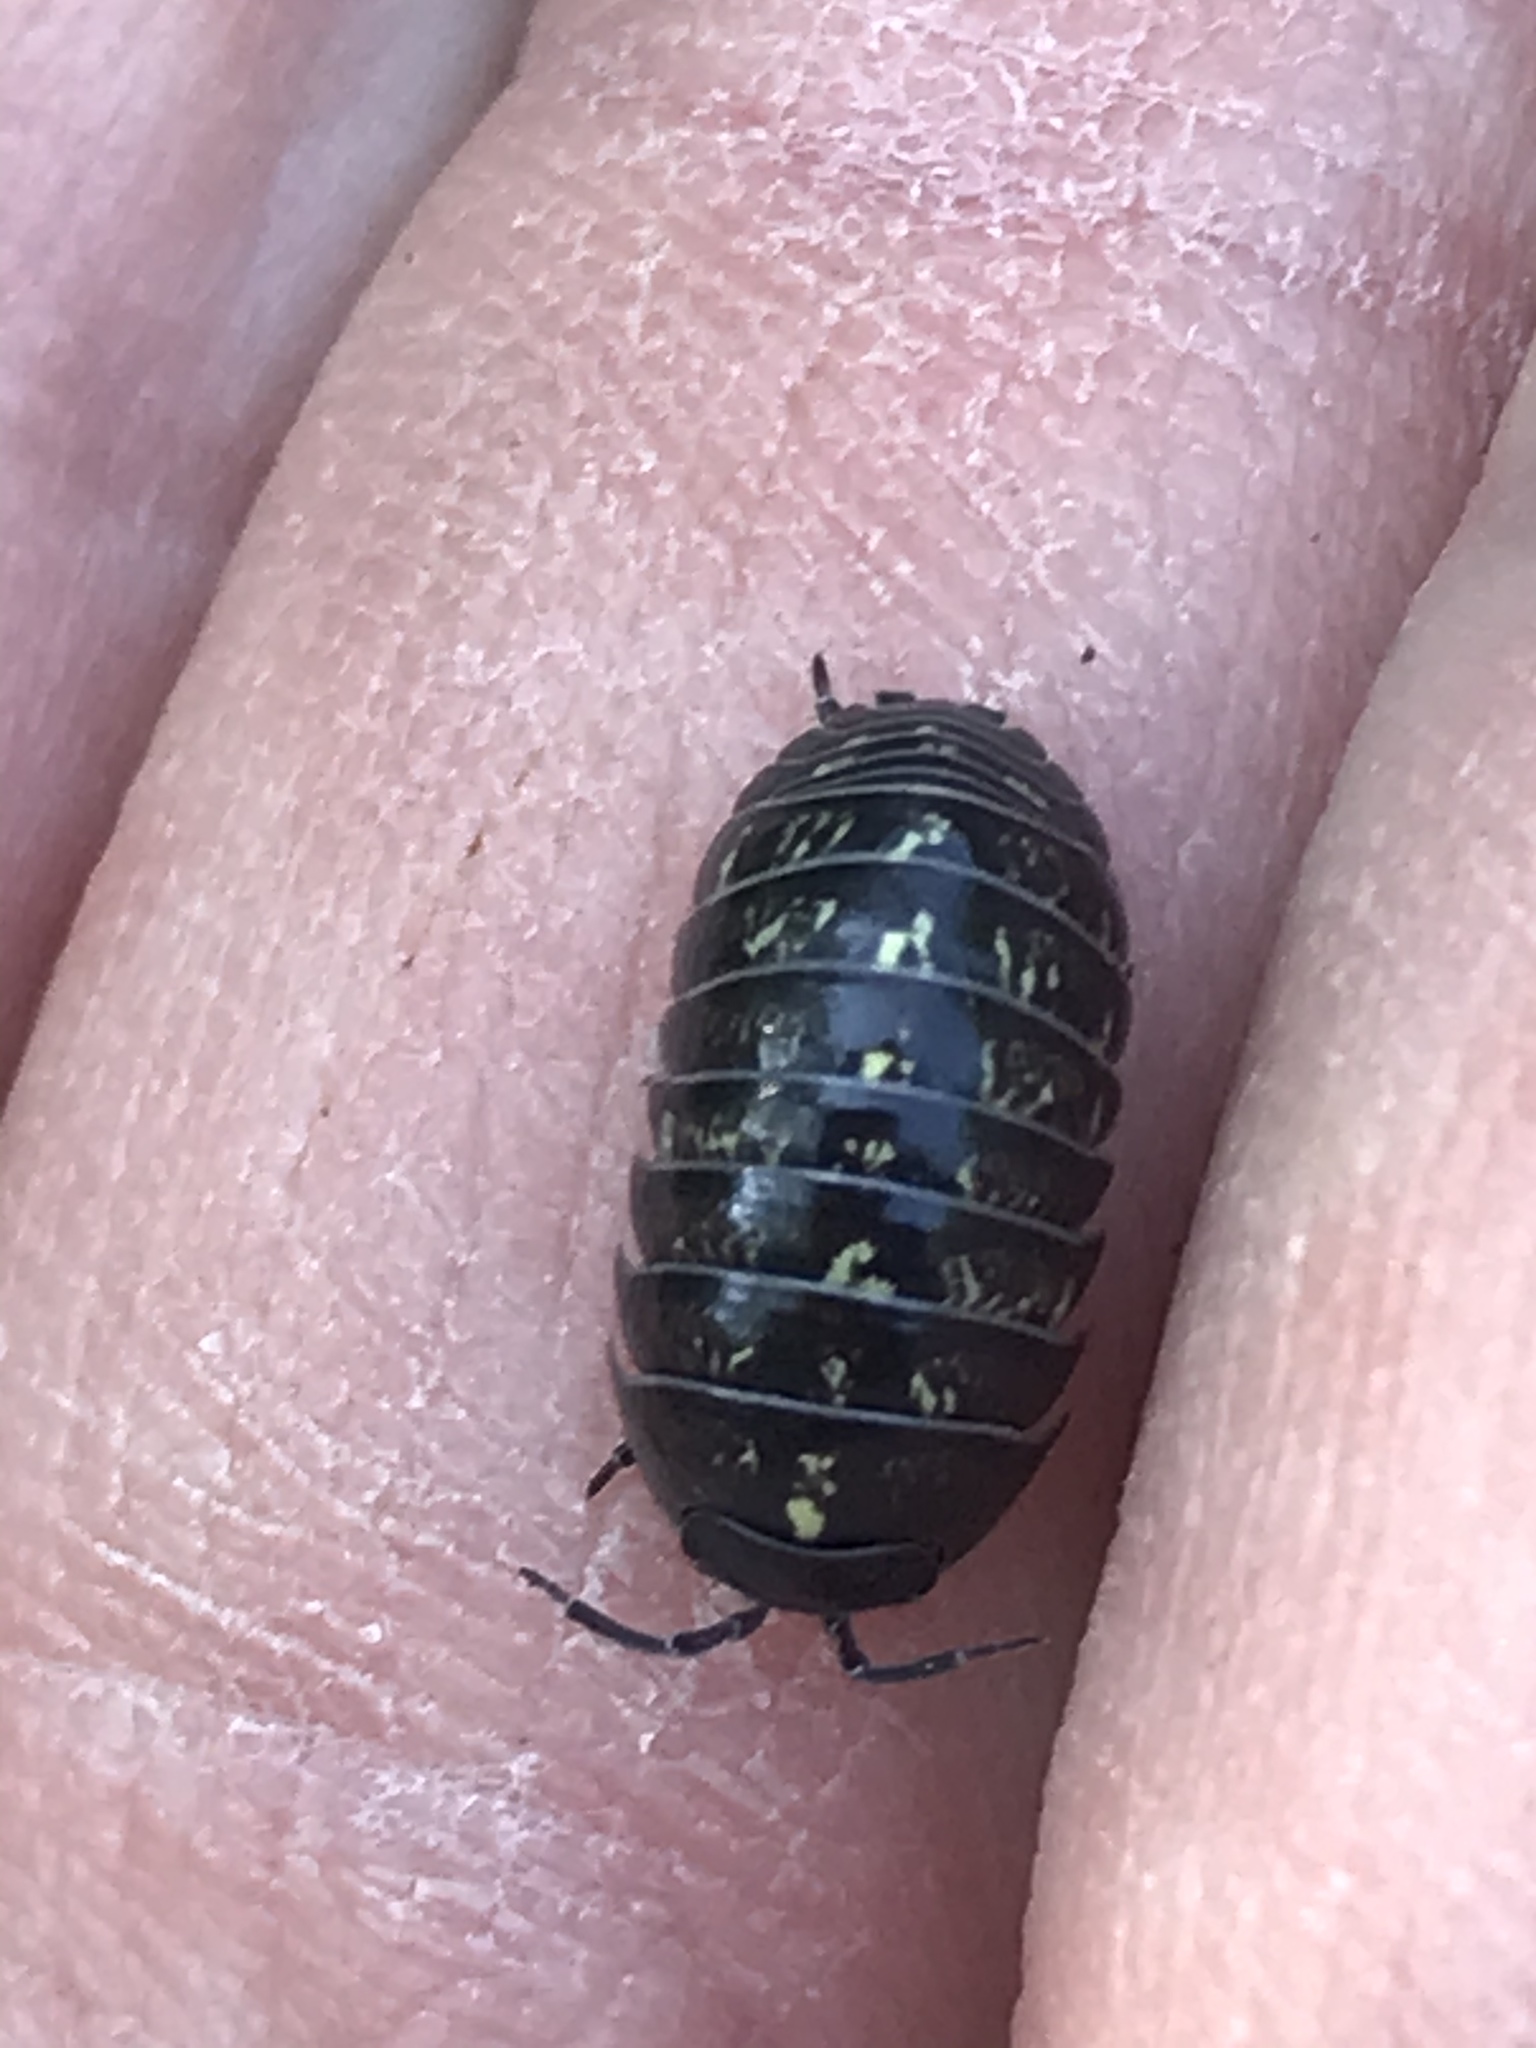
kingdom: Animalia
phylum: Arthropoda
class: Malacostraca
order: Isopoda
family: Armadillidiidae
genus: Armadillidium
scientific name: Armadillidium vulgare
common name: Common pill woodlouse
